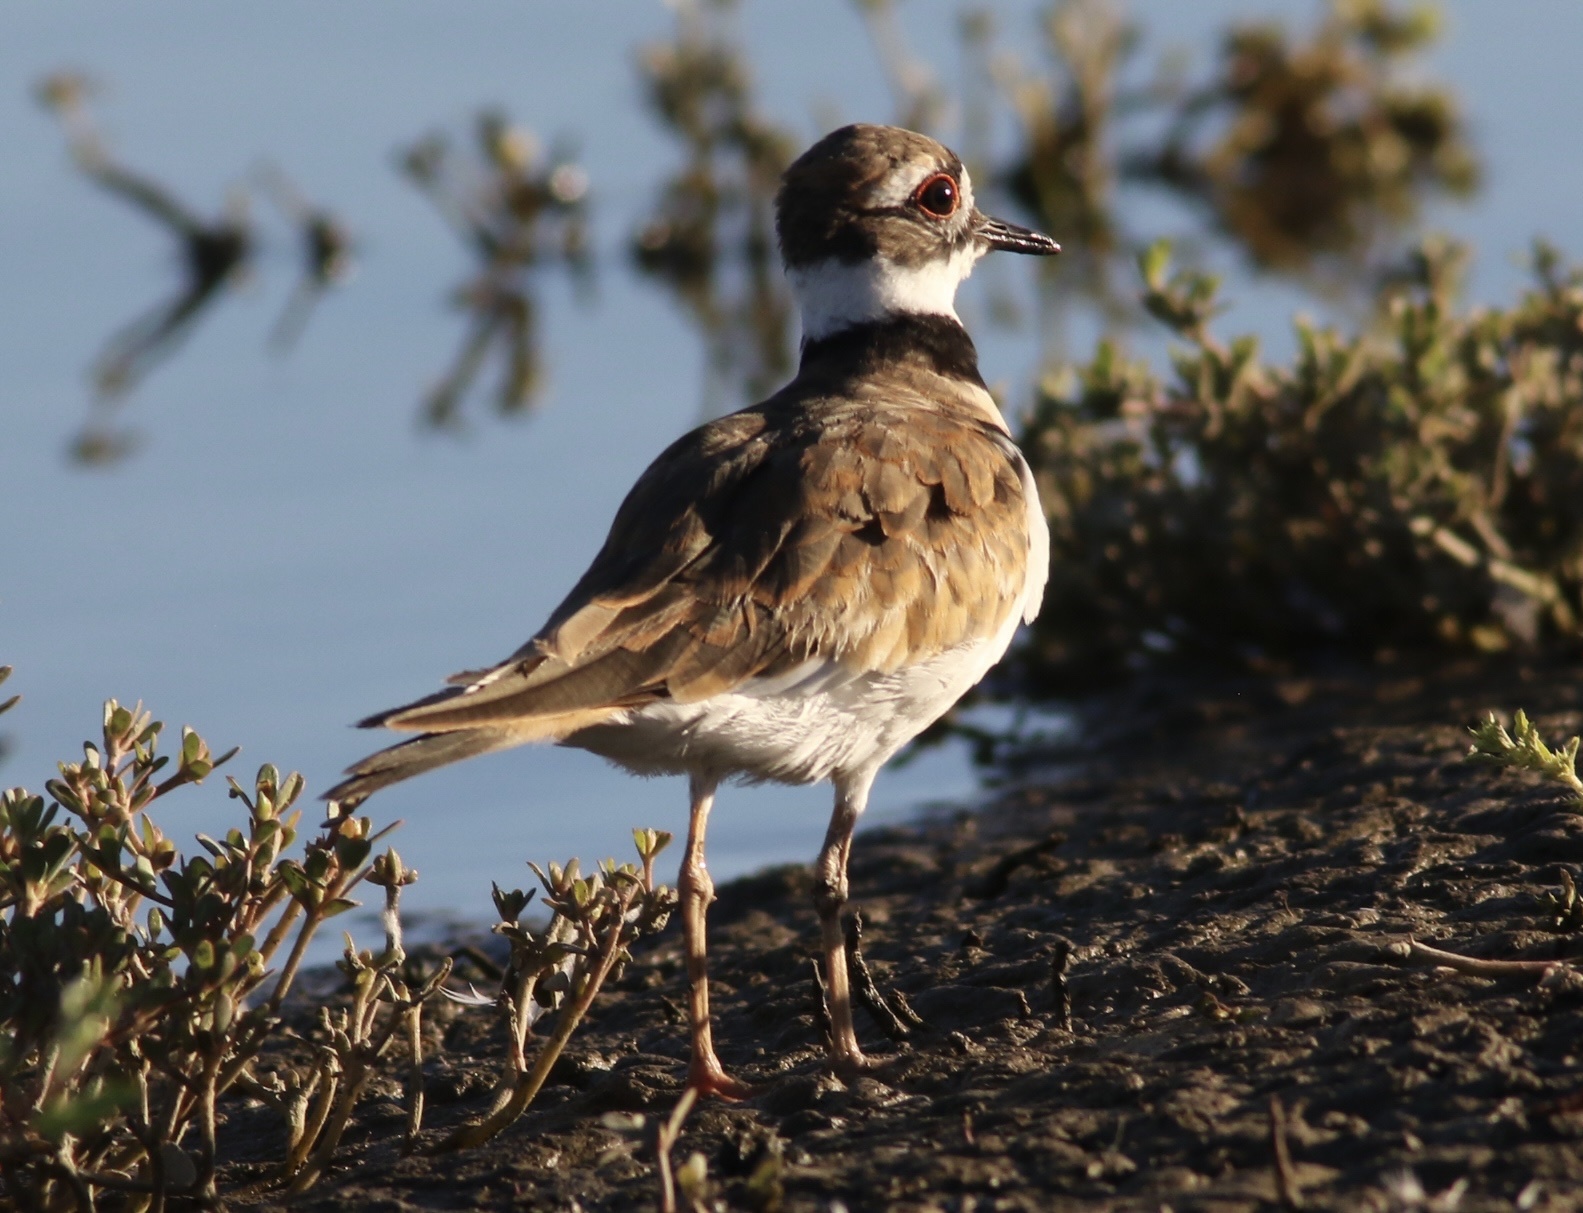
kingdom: Animalia
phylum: Chordata
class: Aves
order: Charadriiformes
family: Charadriidae
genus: Charadrius
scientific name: Charadrius vociferus
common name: Killdeer
